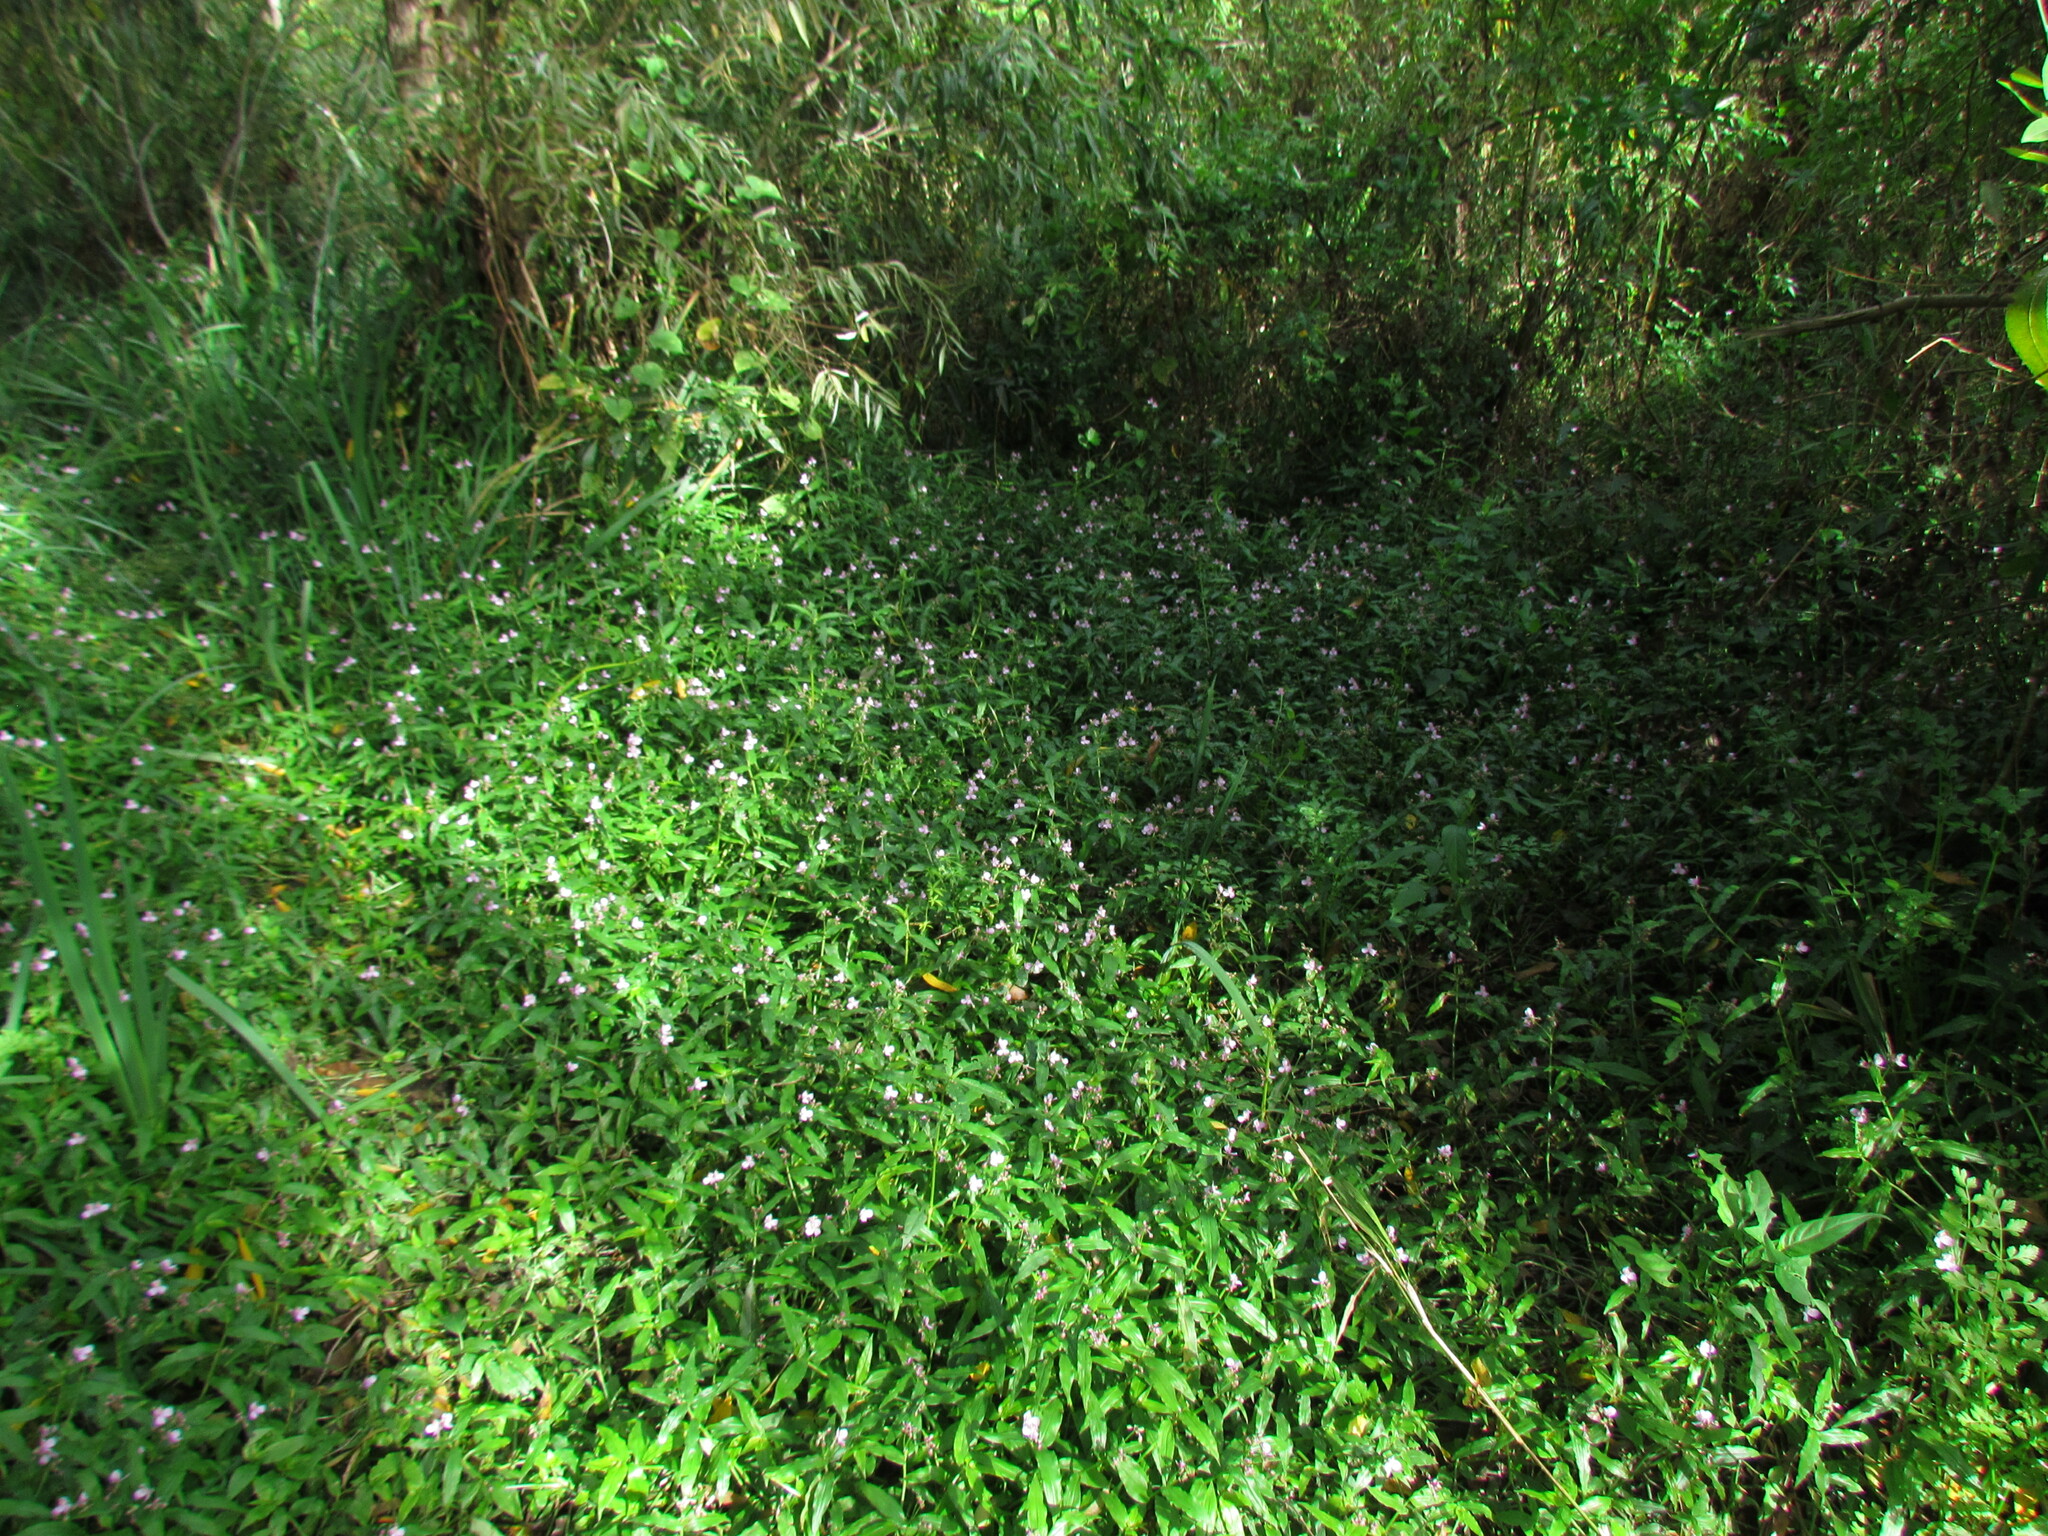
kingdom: Plantae
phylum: Tracheophyta
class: Liliopsida
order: Commelinales
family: Commelinaceae
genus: Callisia
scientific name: Callisia diuretica
